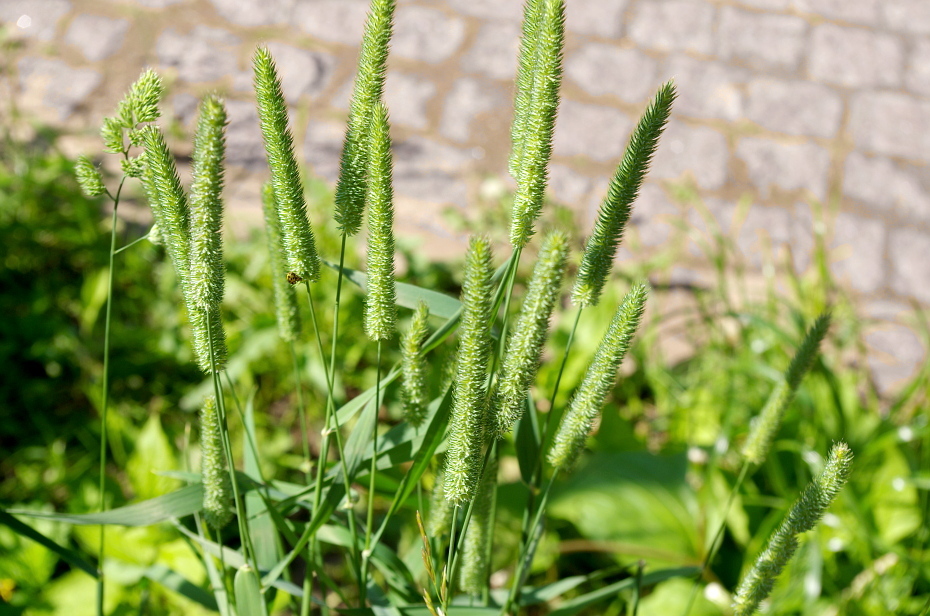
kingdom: Plantae
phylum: Tracheophyta
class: Liliopsida
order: Poales
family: Poaceae
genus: Phleum
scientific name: Phleum pratense
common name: Timothy grass
